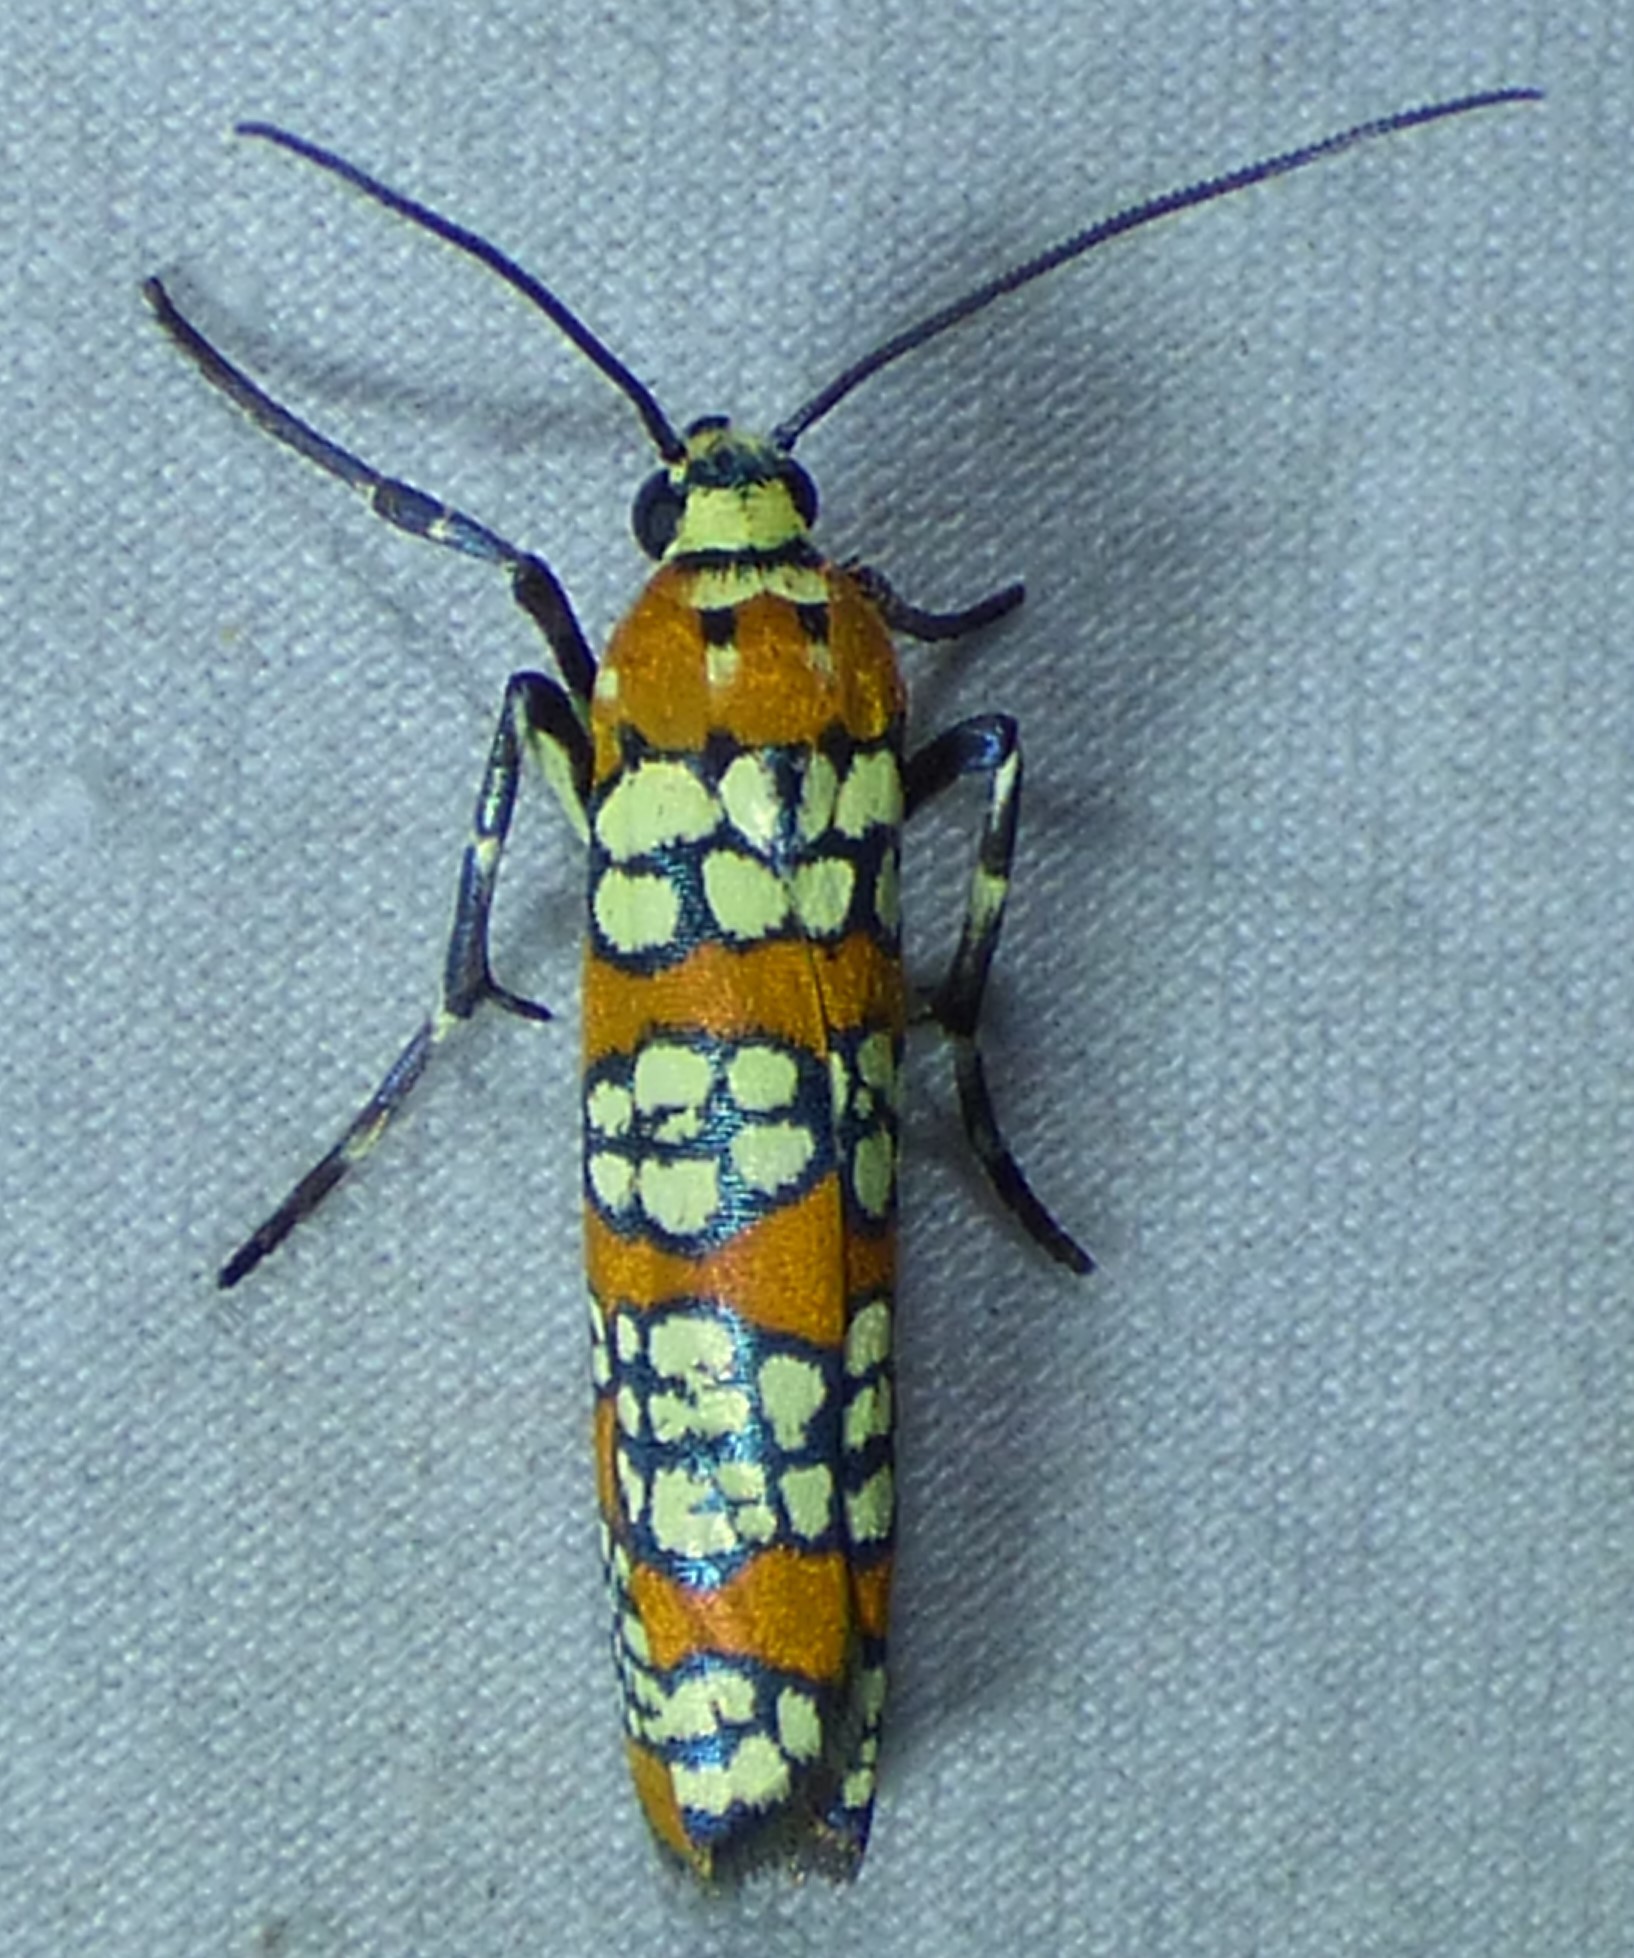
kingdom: Animalia
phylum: Arthropoda
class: Insecta
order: Lepidoptera
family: Attevidae
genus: Atteva
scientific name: Atteva punctella
